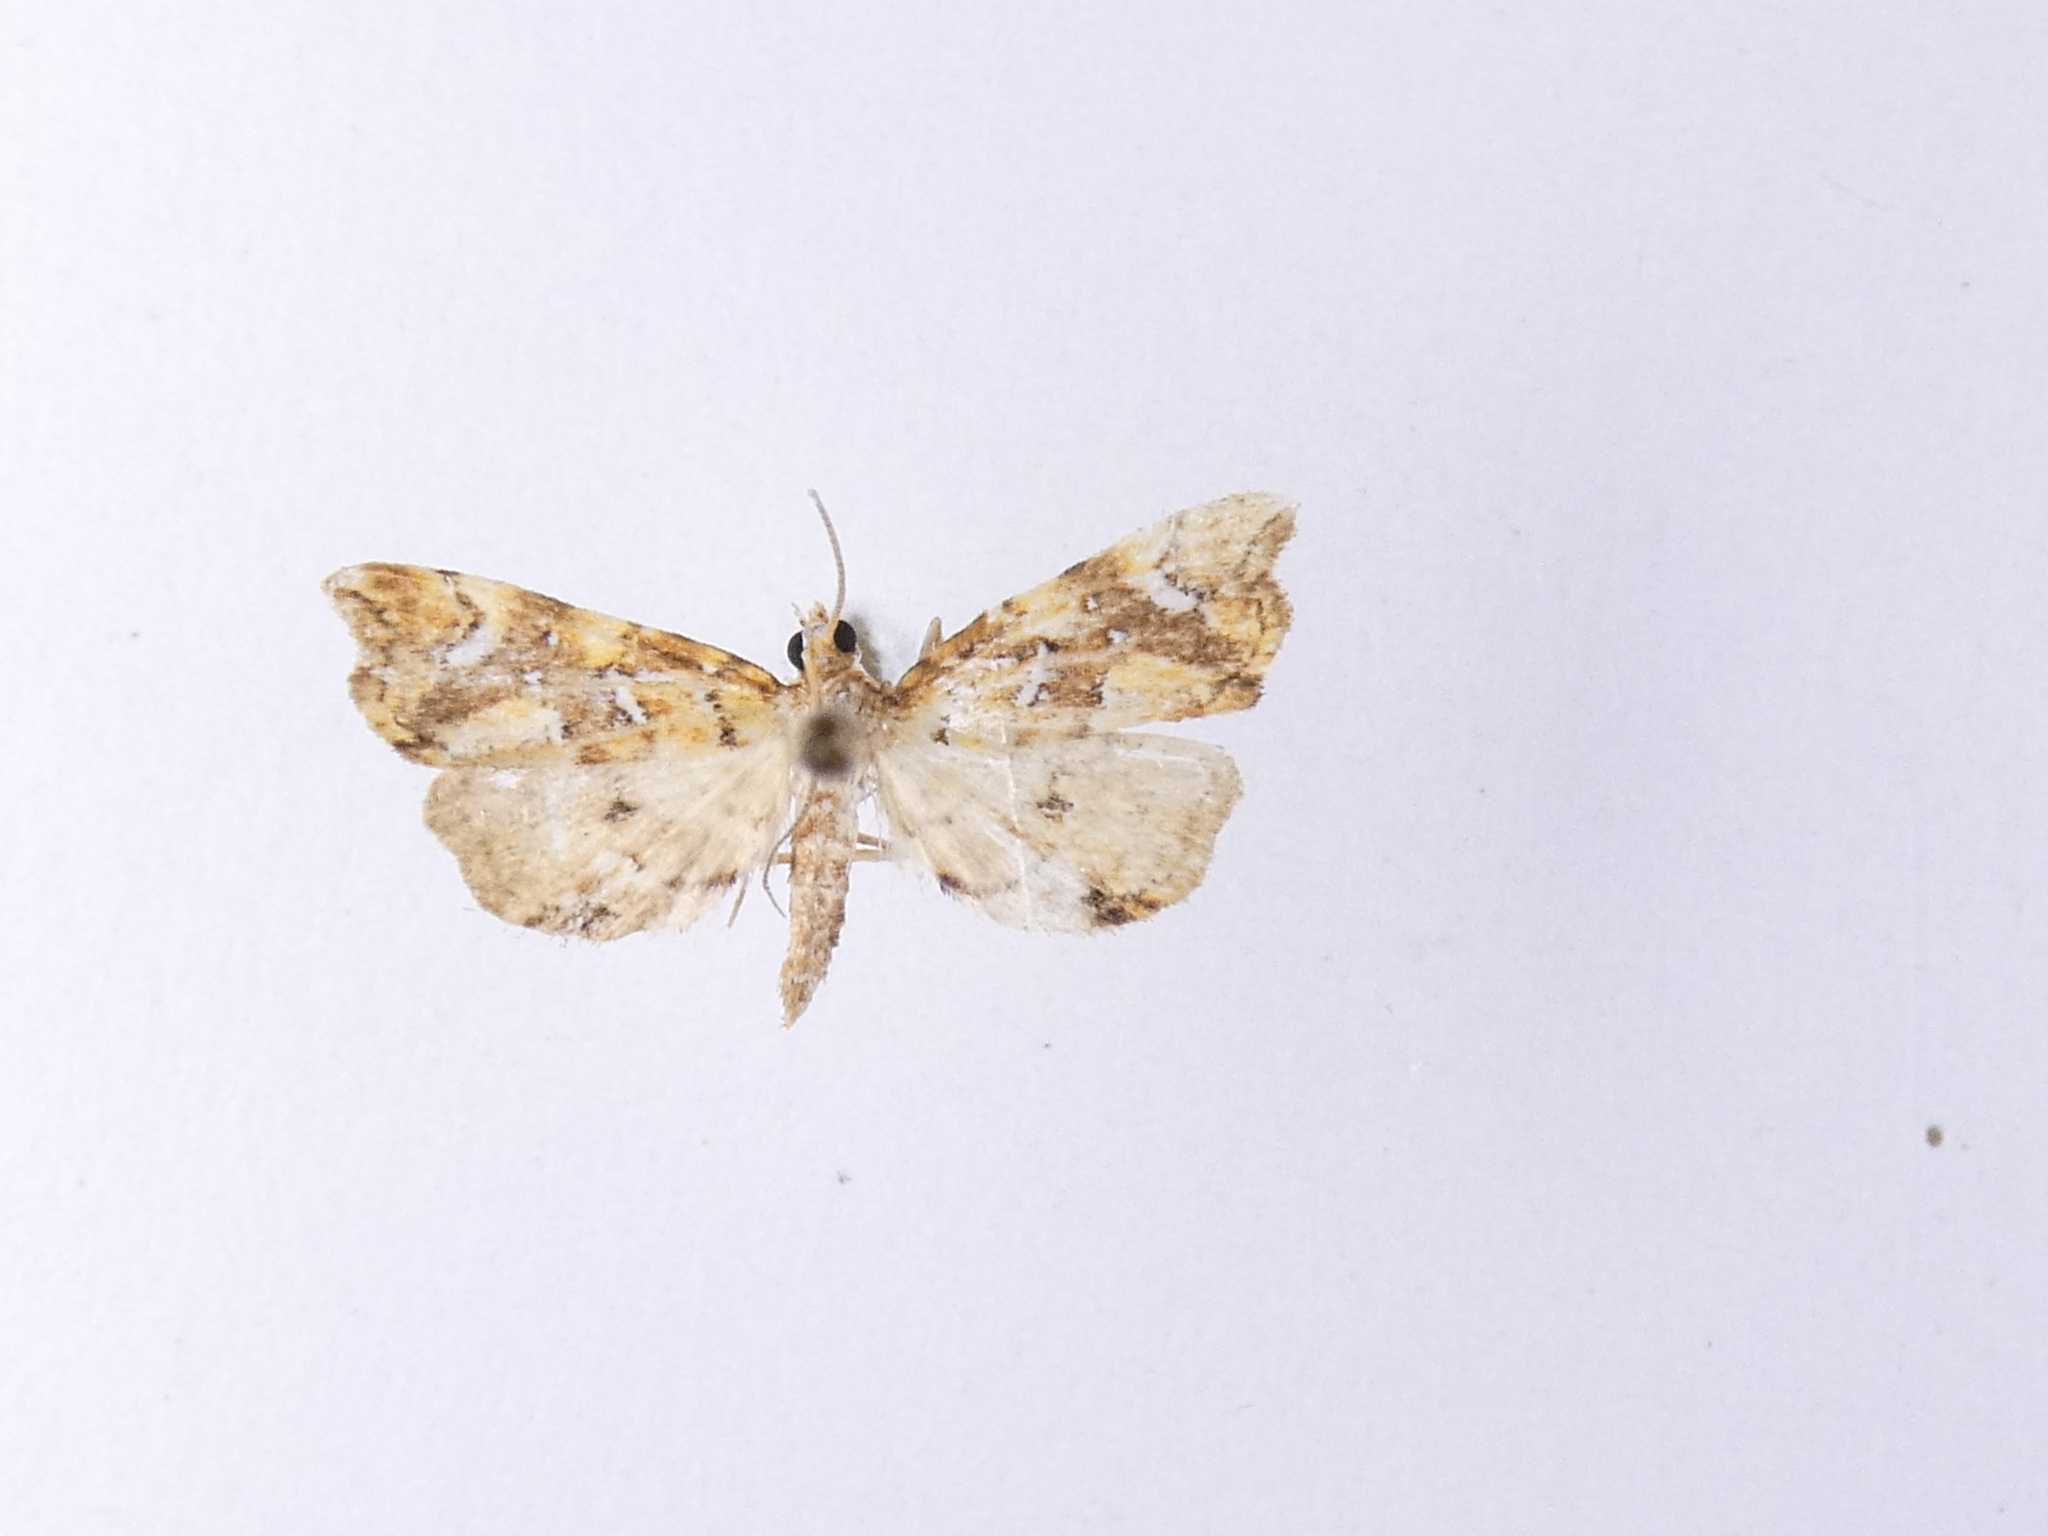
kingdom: Animalia
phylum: Arthropoda
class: Insecta
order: Lepidoptera
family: Pyralidae
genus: Musotima
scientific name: Musotima nitidalis
